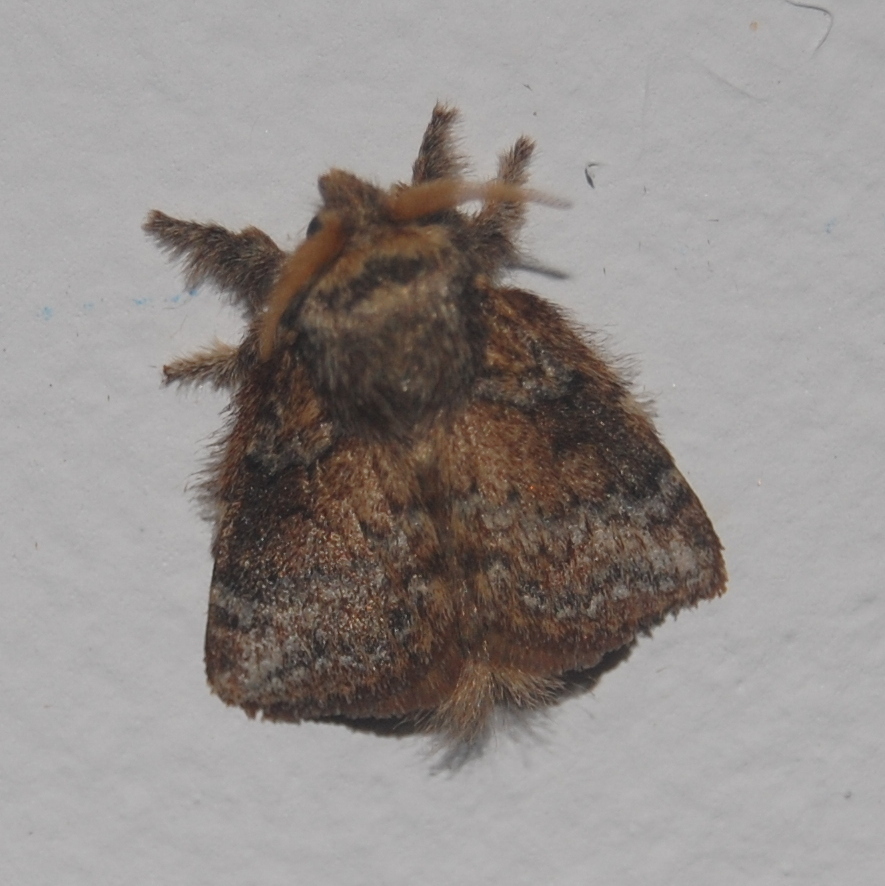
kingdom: Animalia
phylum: Arthropoda
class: Insecta
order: Lepidoptera
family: Lasiocampidae
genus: Euglyphis
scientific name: Euglyphis lacrimosa
